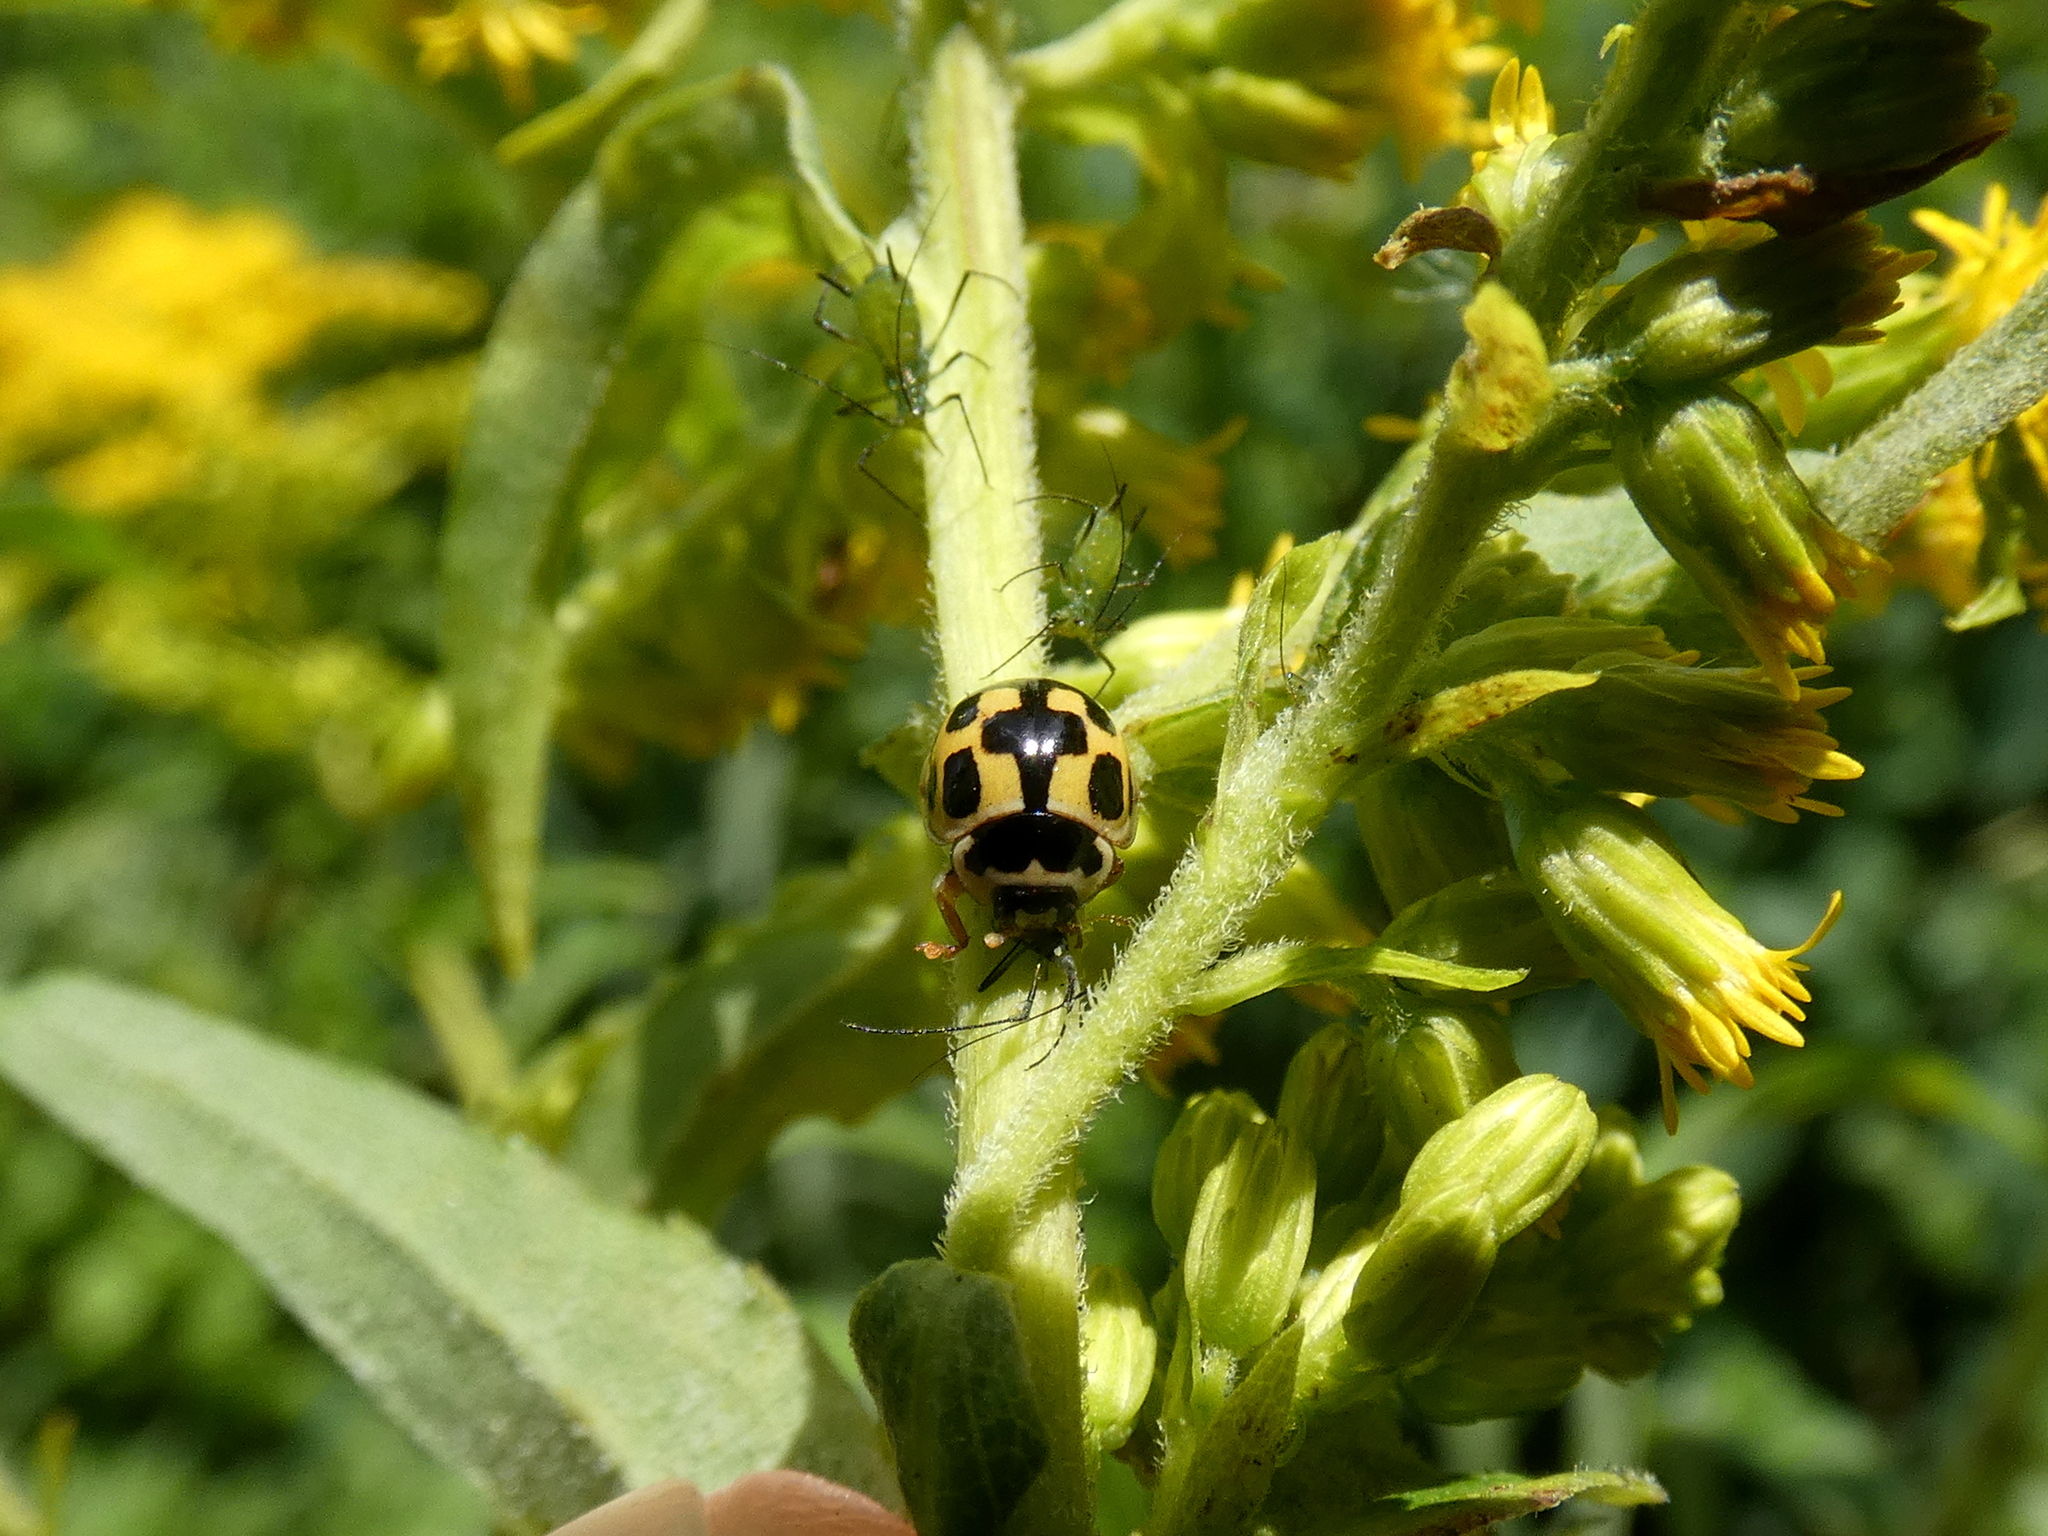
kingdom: Animalia
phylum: Arthropoda
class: Insecta
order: Coleoptera
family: Coccinellidae
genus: Propylaea
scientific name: Propylaea quatuordecimpunctata
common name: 14-spotted ladybird beetle
